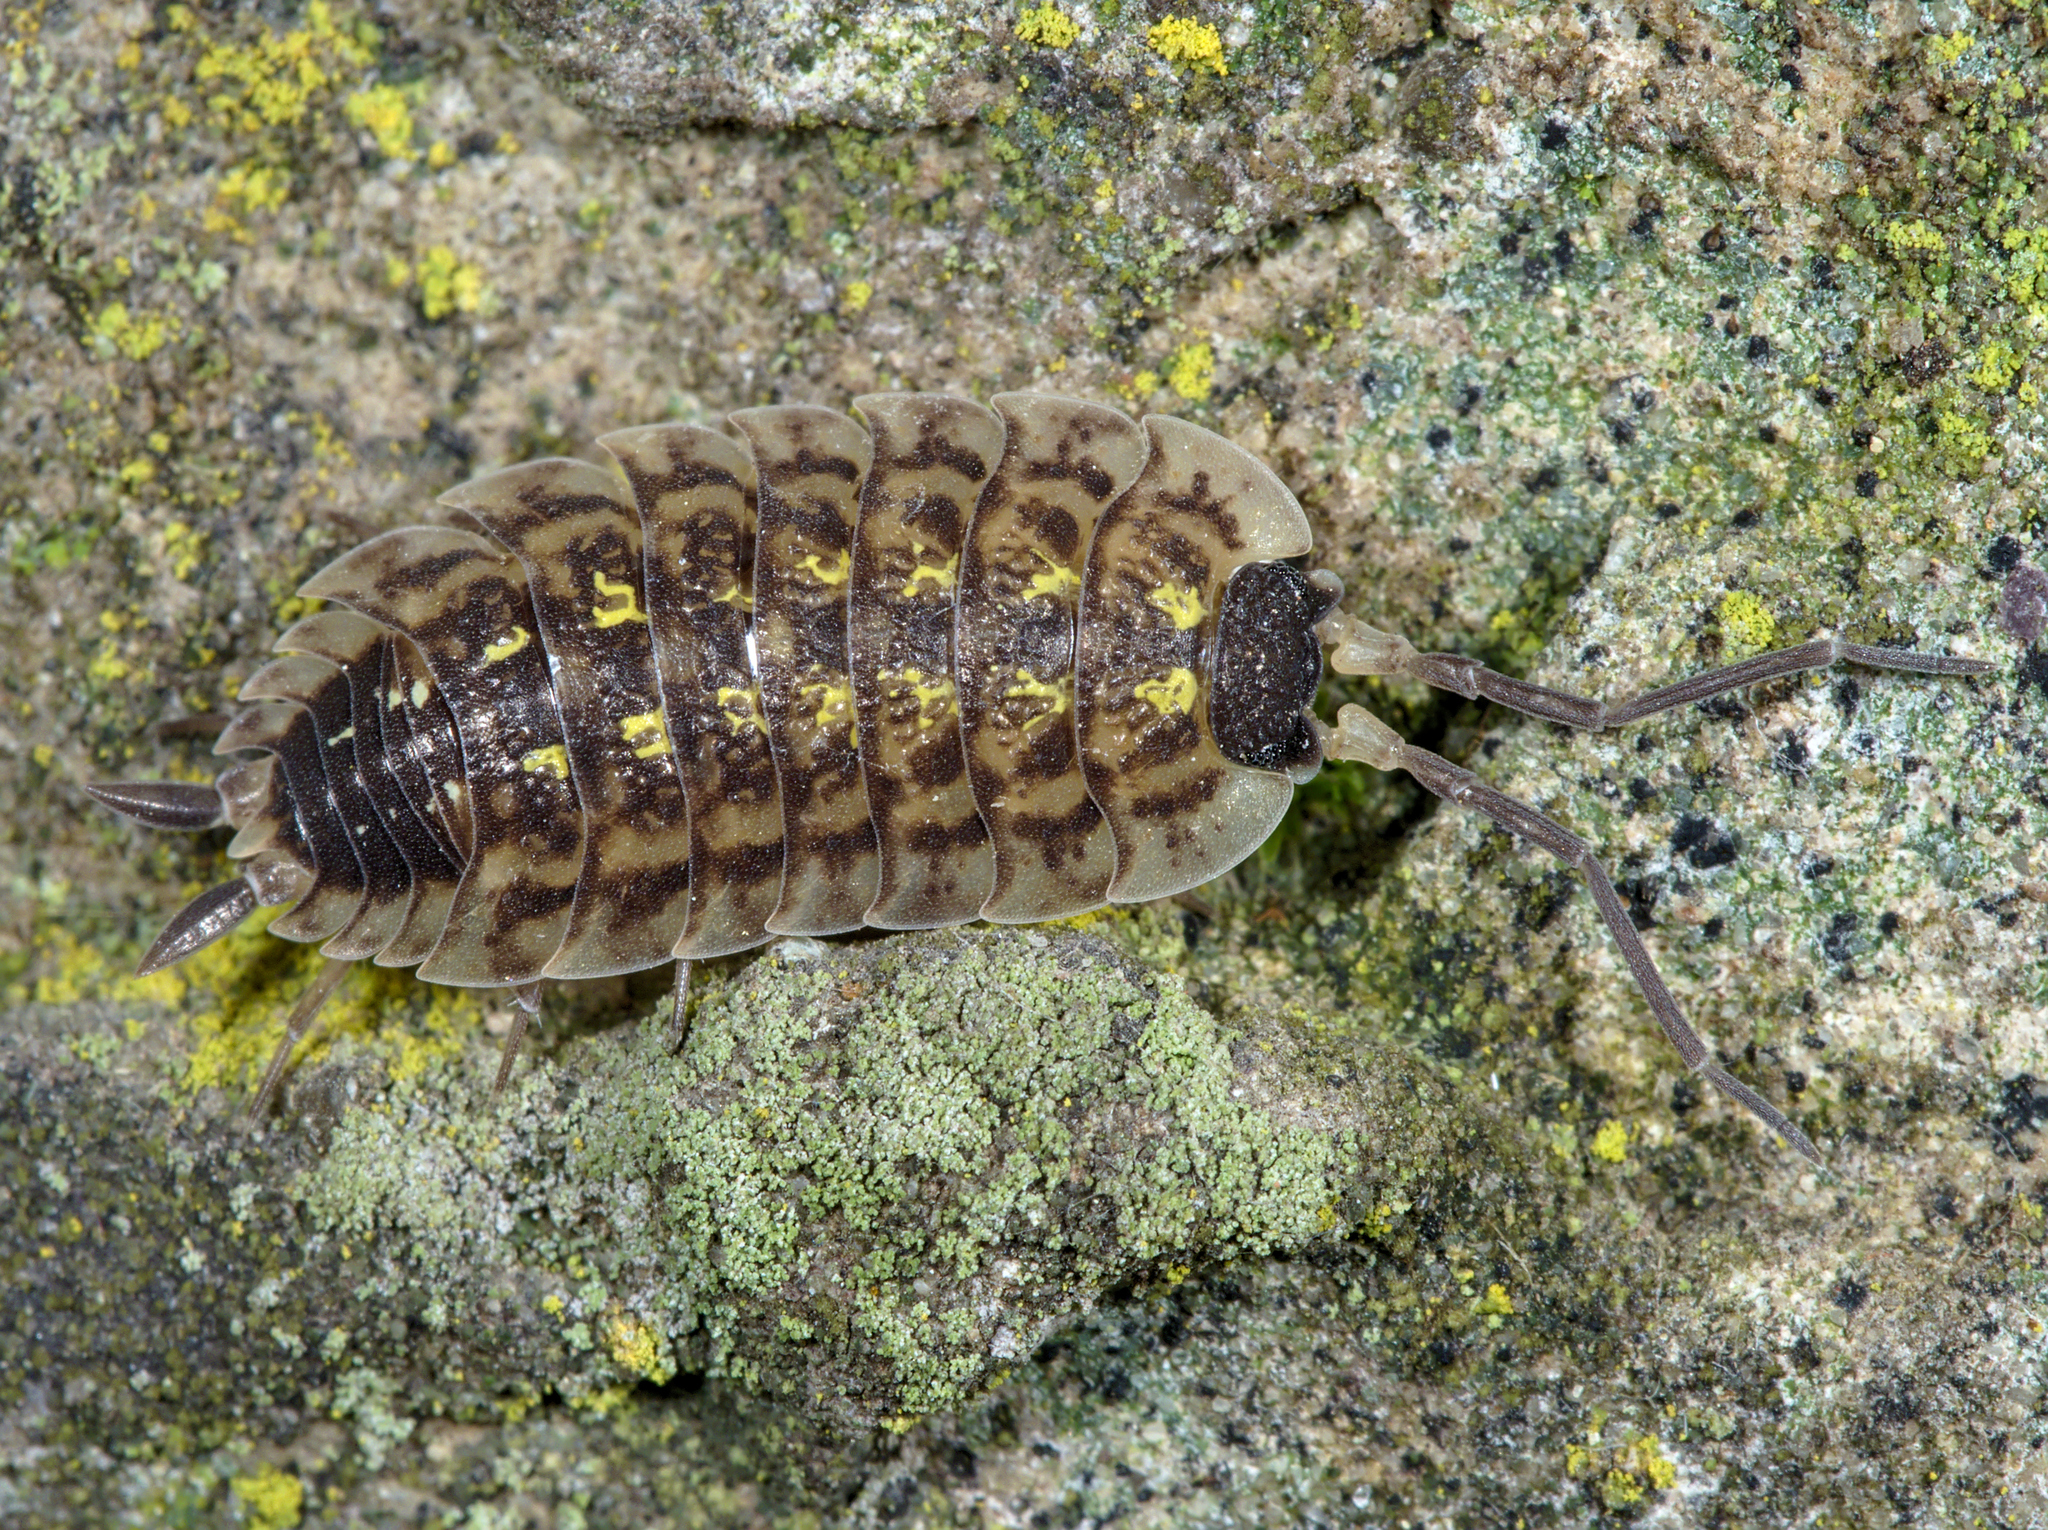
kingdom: Animalia
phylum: Arthropoda
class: Malacostraca
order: Isopoda
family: Porcellionidae
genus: Porcellio
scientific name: Porcellio spinicornis
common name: Painted woodlouse
